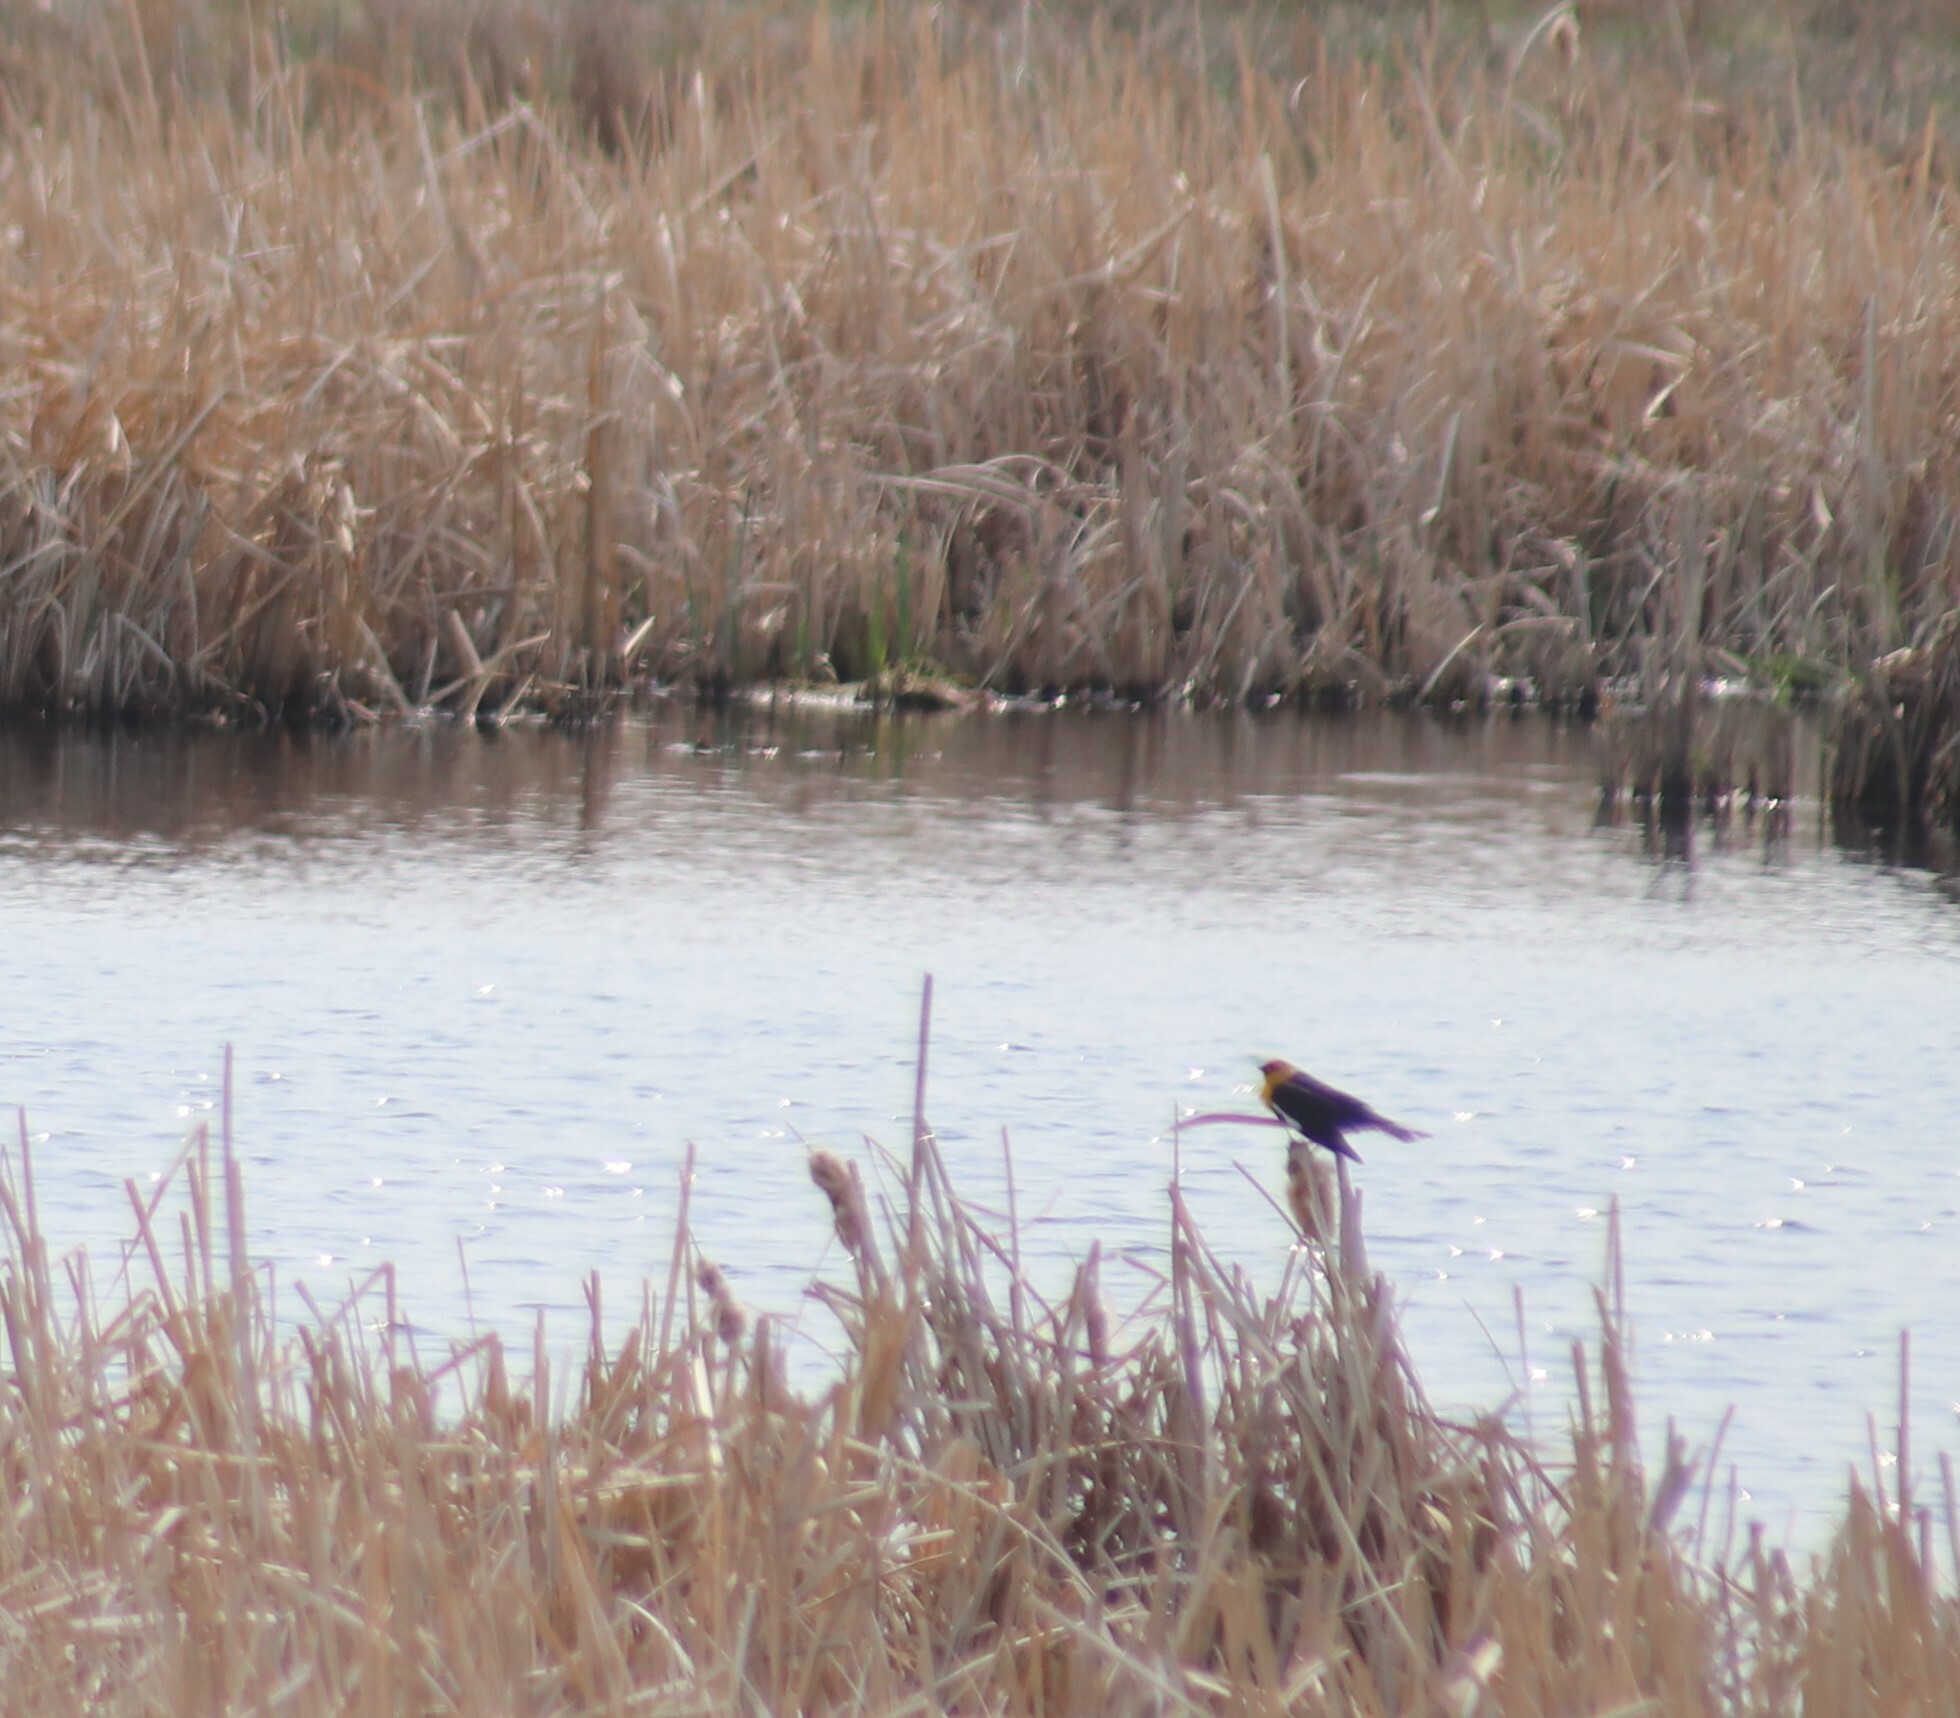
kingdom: Animalia
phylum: Chordata
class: Aves
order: Passeriformes
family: Icteridae
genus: Xanthocephalus
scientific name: Xanthocephalus xanthocephalus
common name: Yellow-headed blackbird
